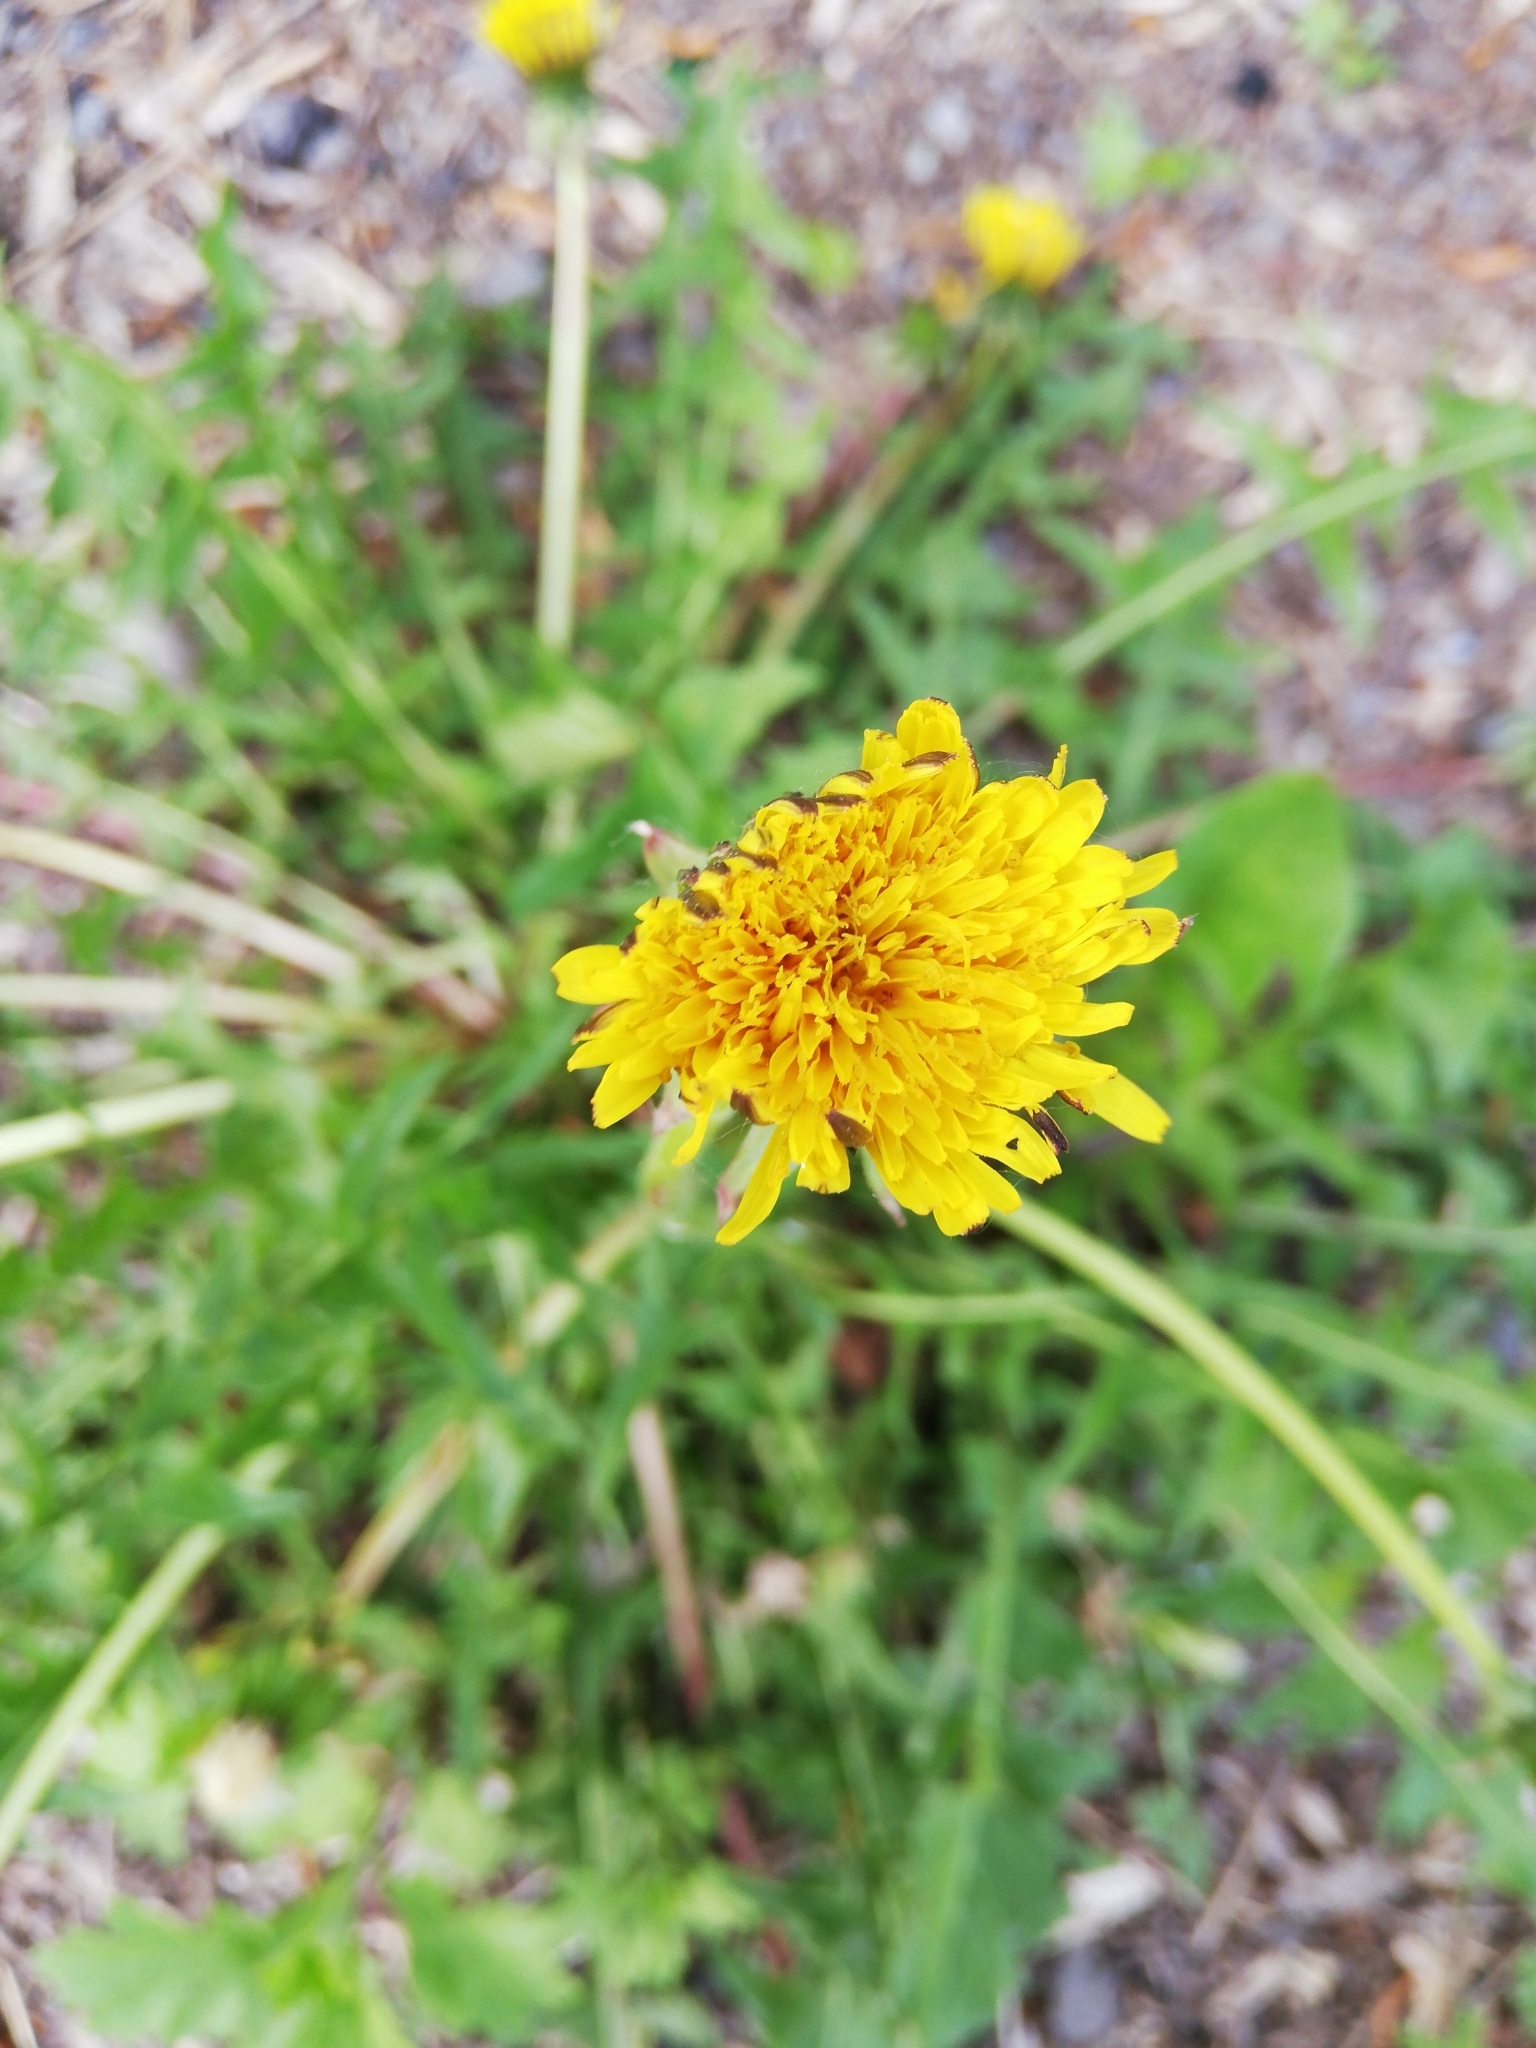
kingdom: Plantae
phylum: Tracheophyta
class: Magnoliopsida
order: Asterales
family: Asteraceae
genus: Taraxacum
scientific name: Taraxacum officinale
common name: Common dandelion
